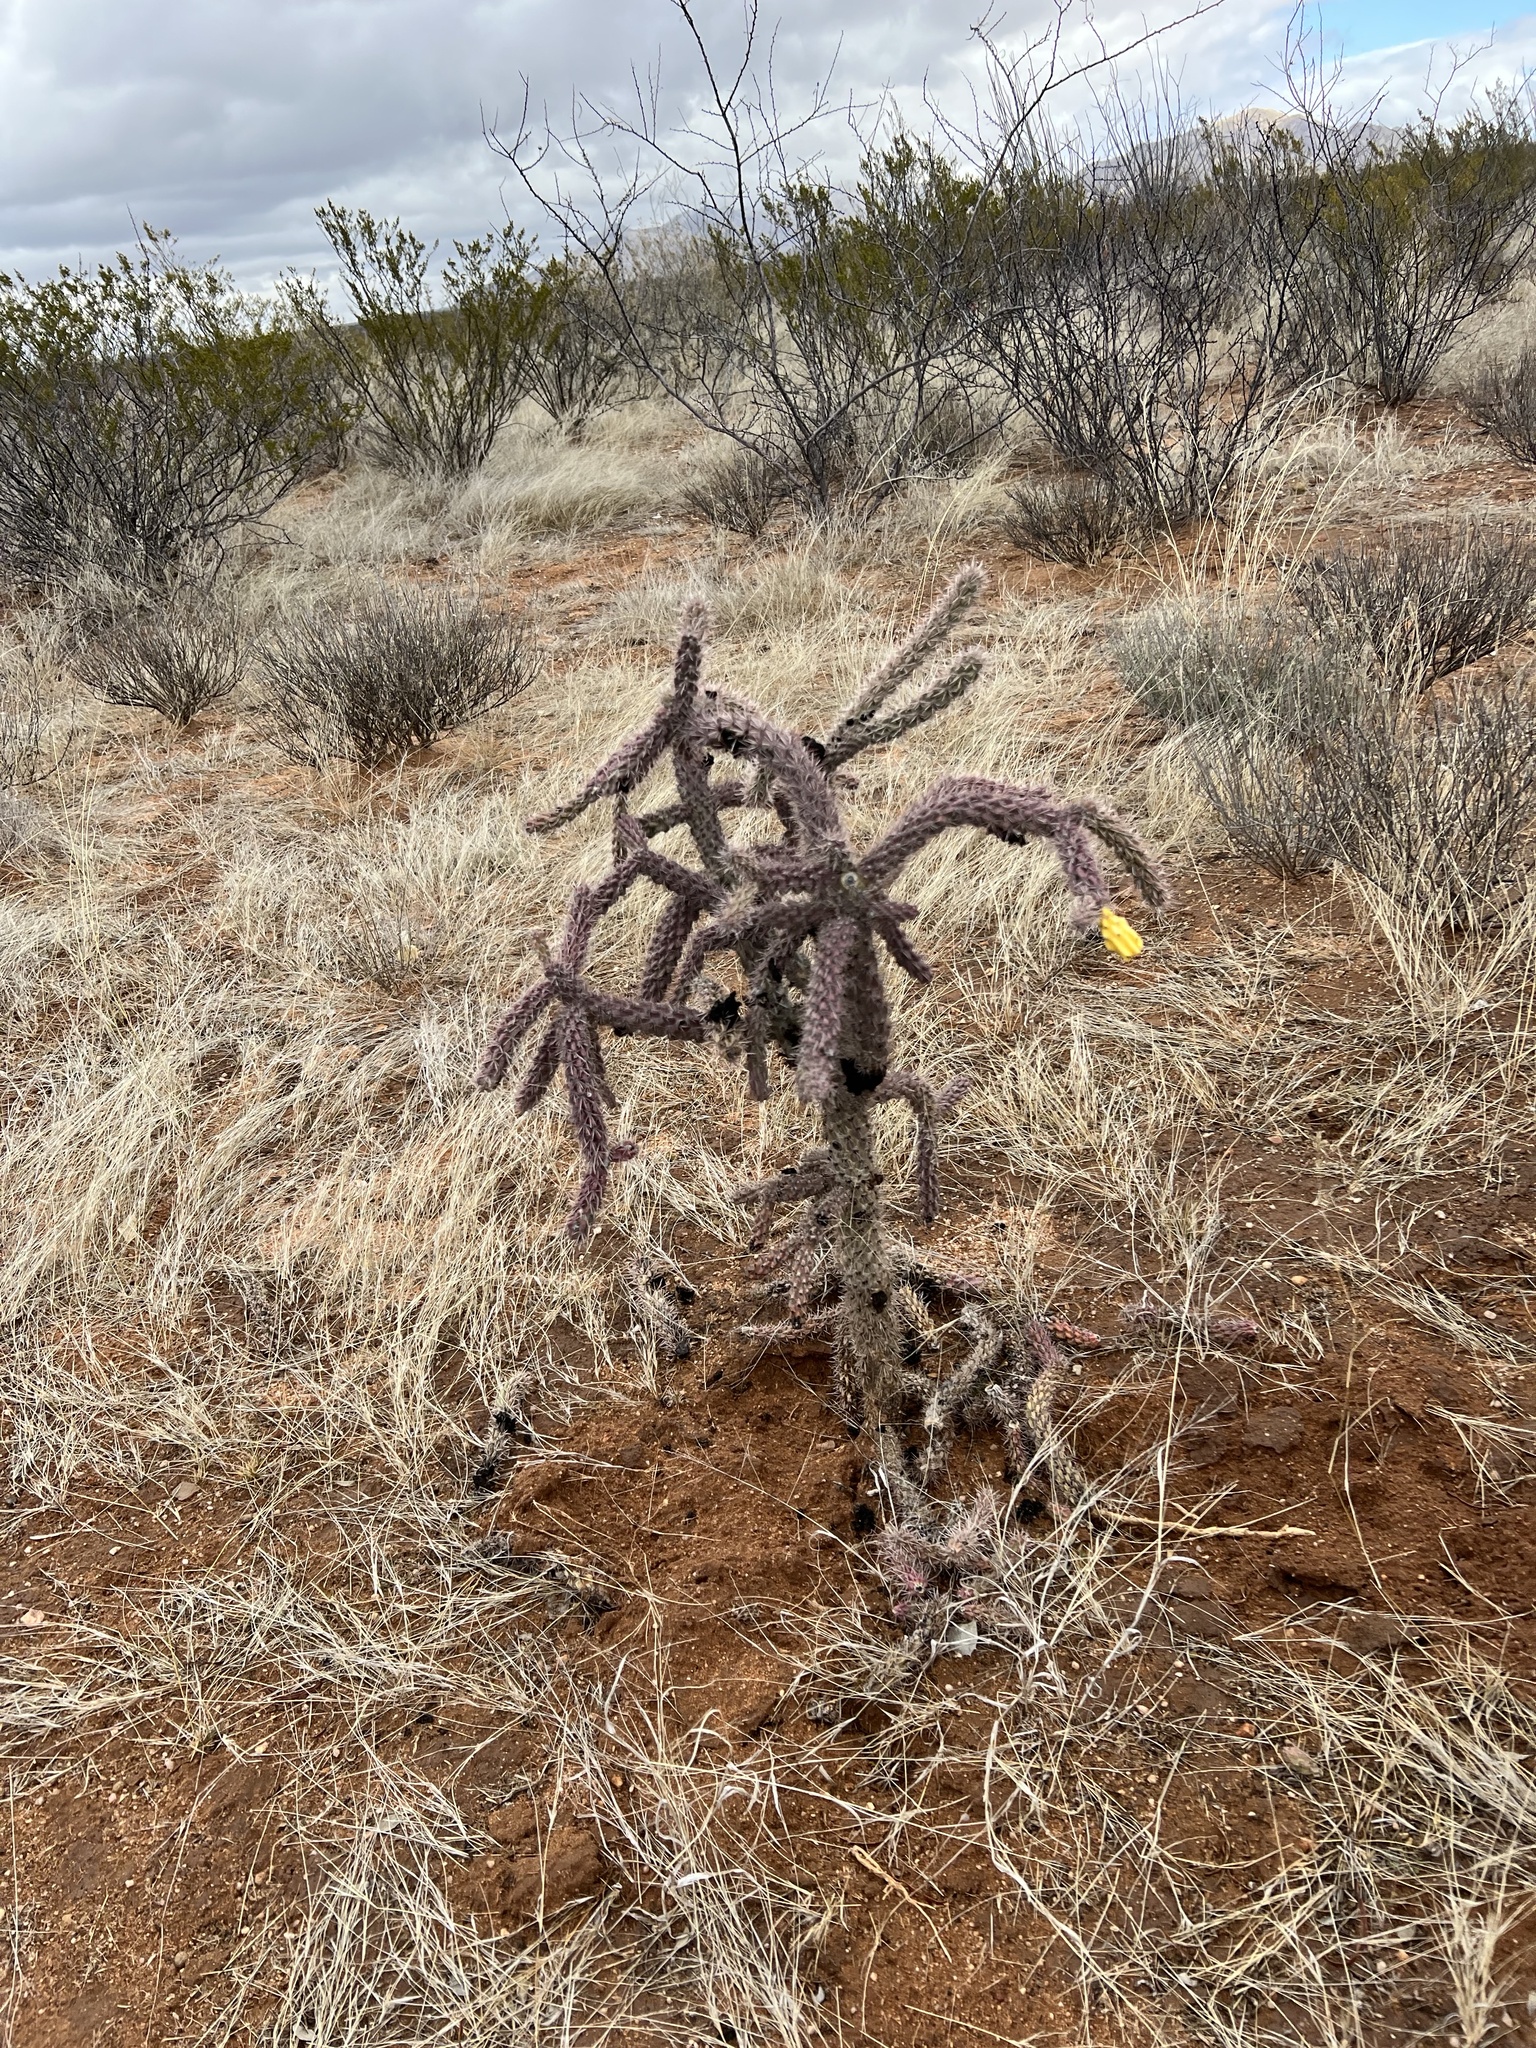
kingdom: Plantae
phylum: Tracheophyta
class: Magnoliopsida
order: Caryophyllales
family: Cactaceae
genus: Cylindropuntia
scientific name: Cylindropuntia imbricata
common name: Candelabrum cactus
